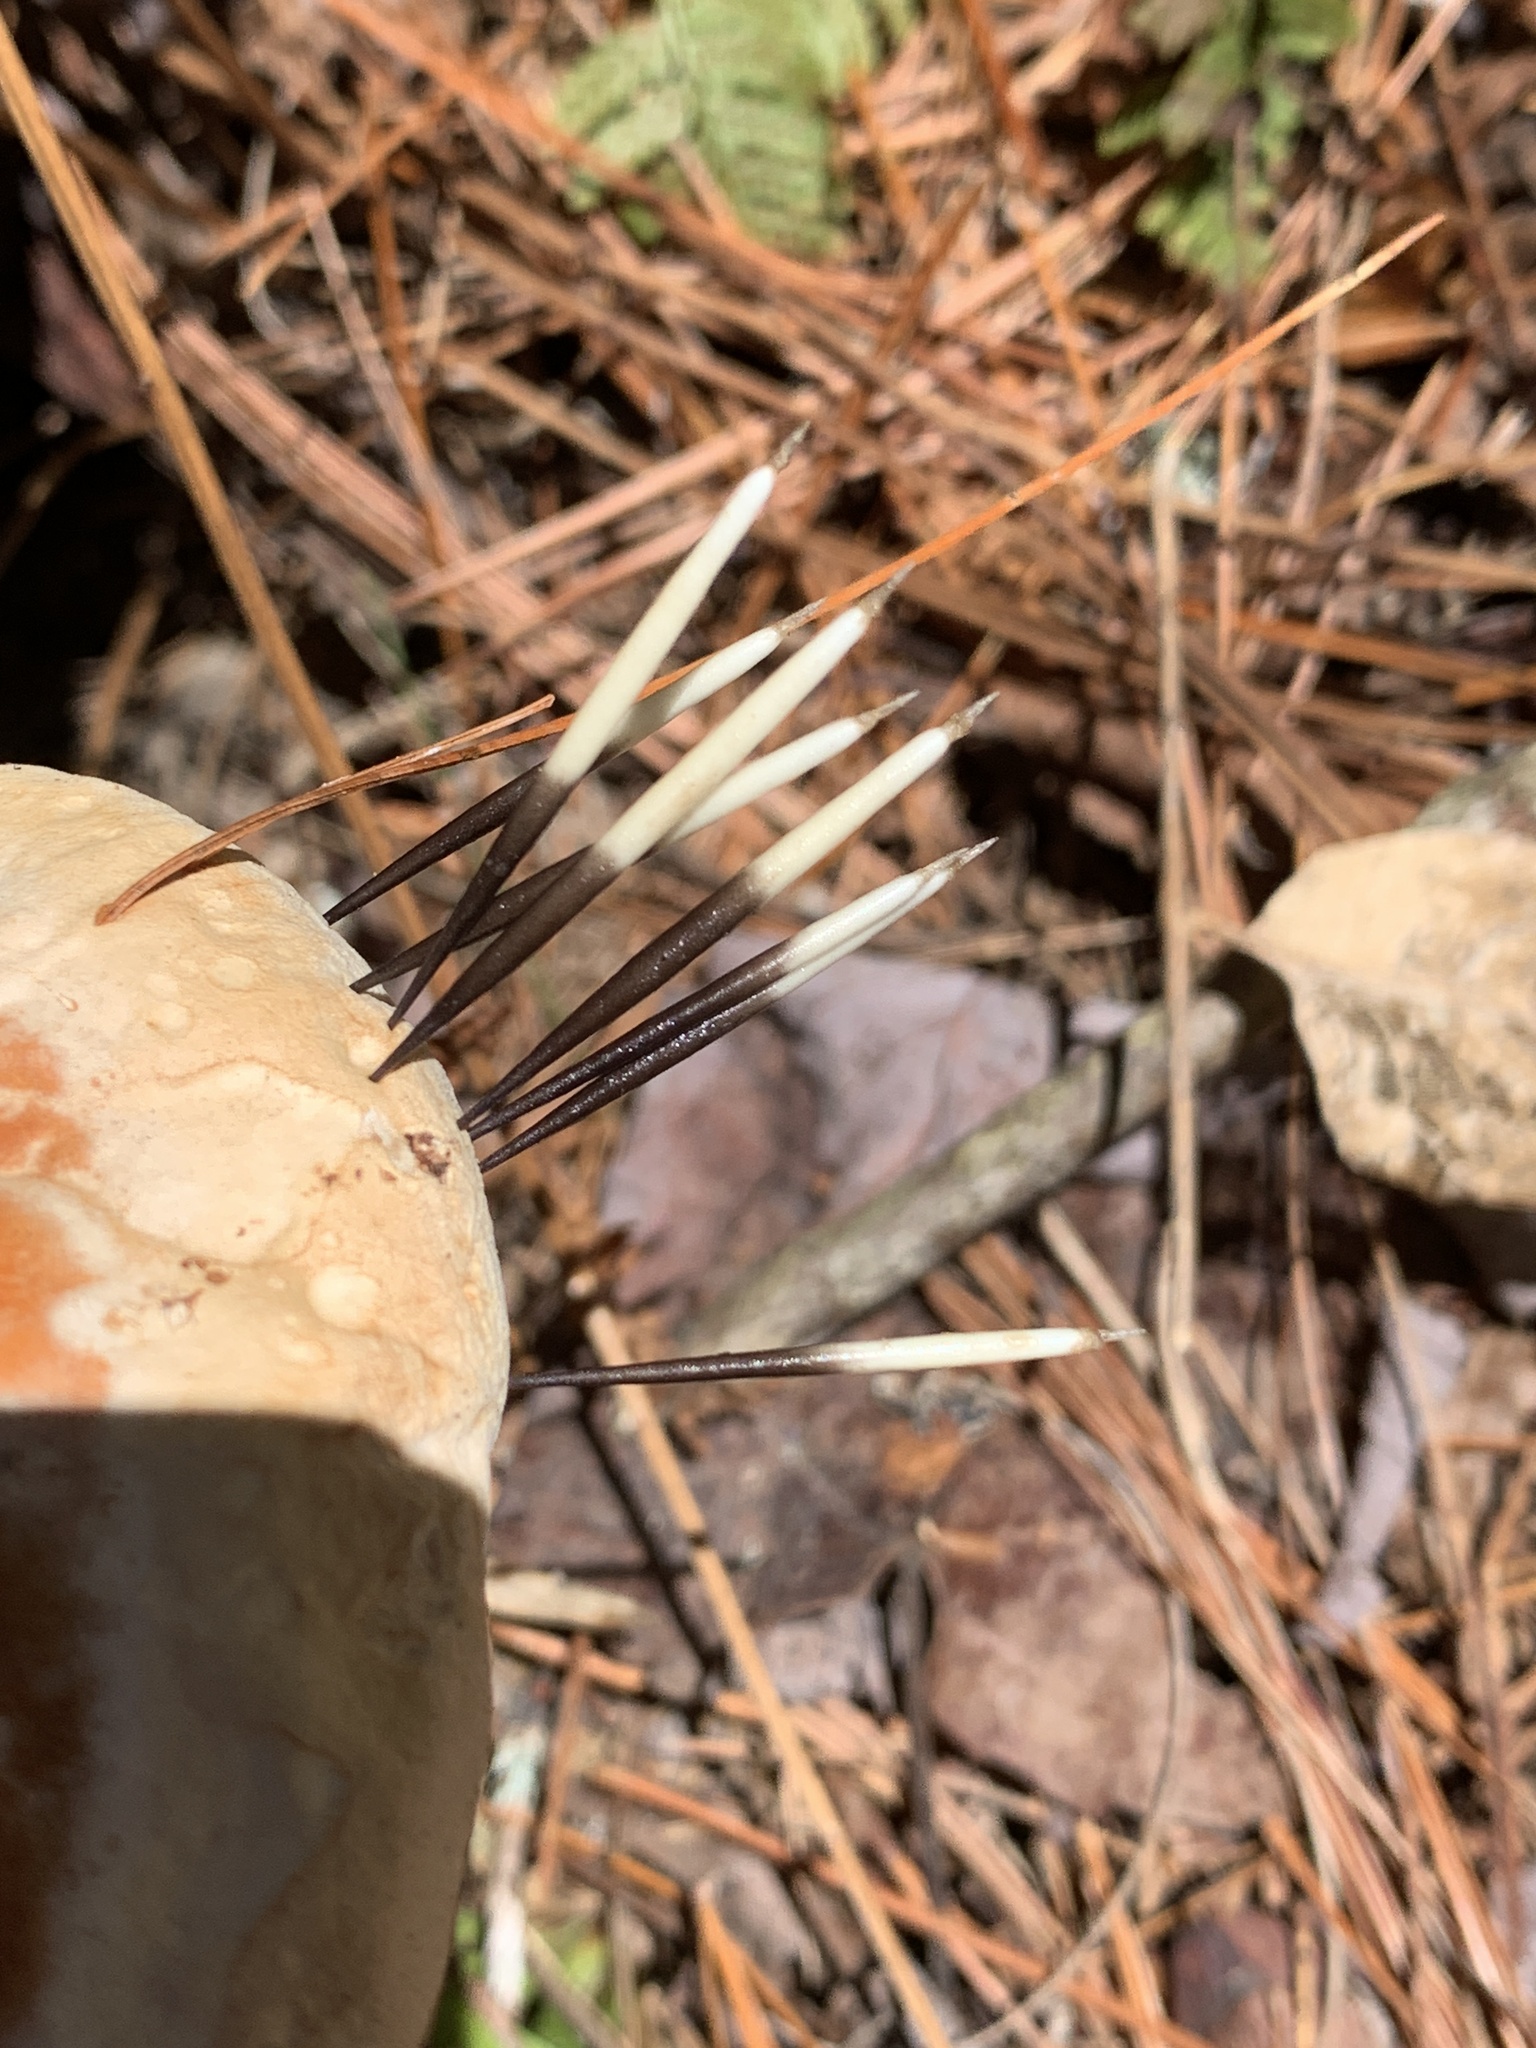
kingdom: Animalia
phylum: Chordata
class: Mammalia
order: Rodentia
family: Erethizontidae
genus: Erethizon
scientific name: Erethizon dorsatus
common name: North american porcupine
